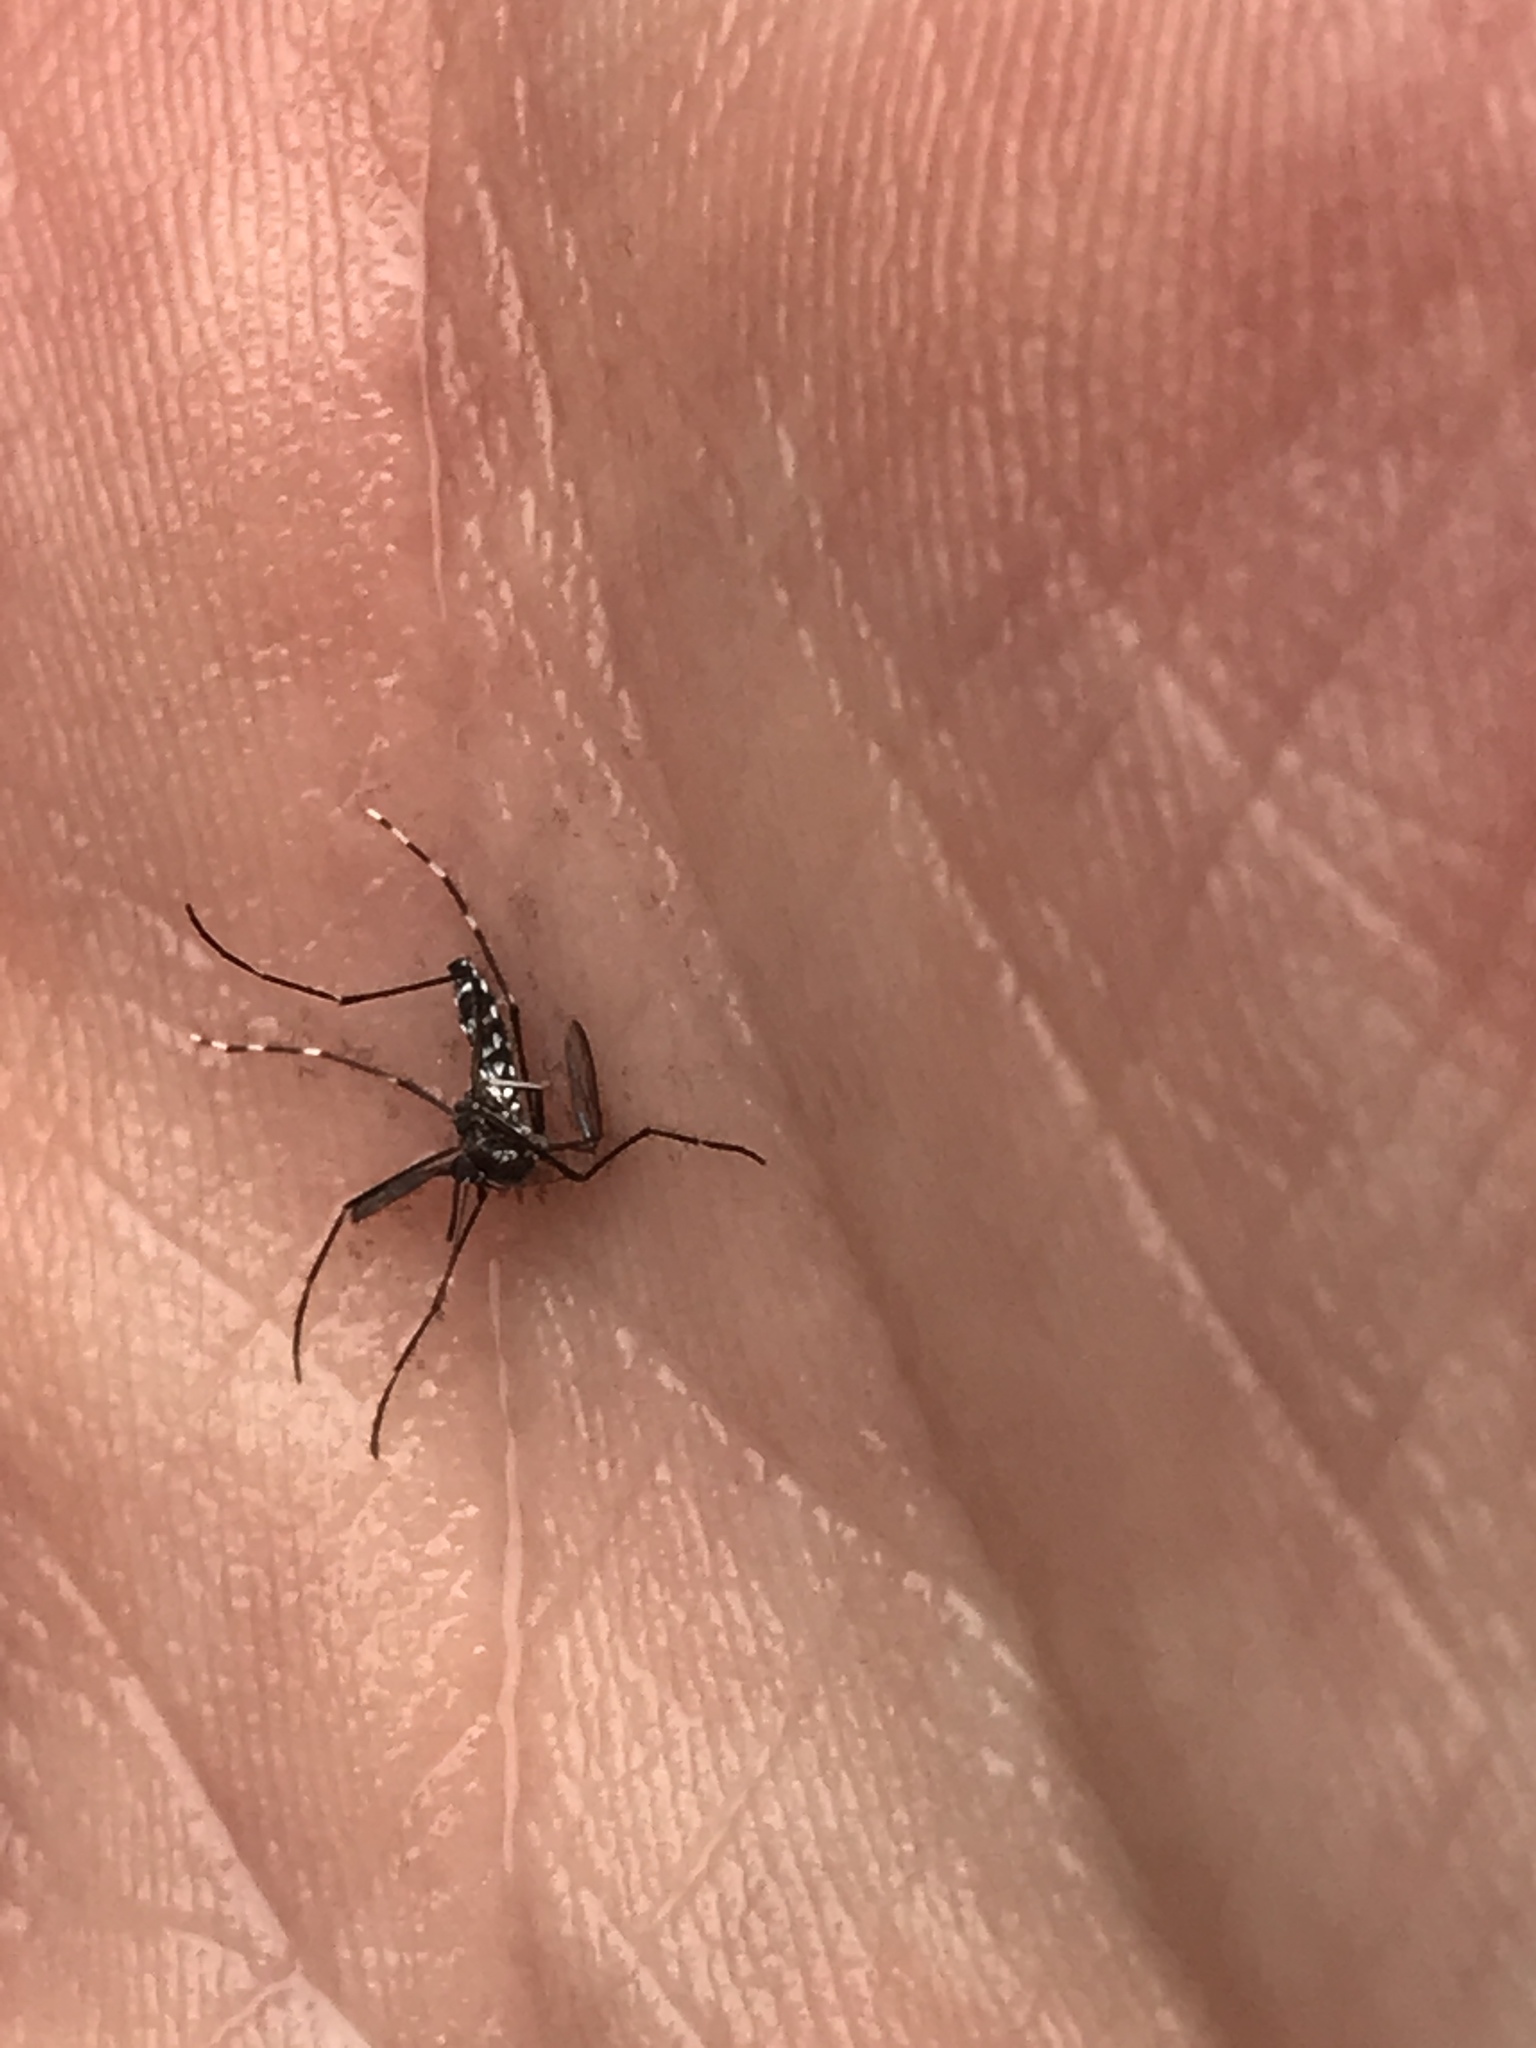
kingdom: Animalia
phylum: Arthropoda
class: Insecta
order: Diptera
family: Culicidae
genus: Aedes
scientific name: Aedes albopictus
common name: Tiger mosquito
